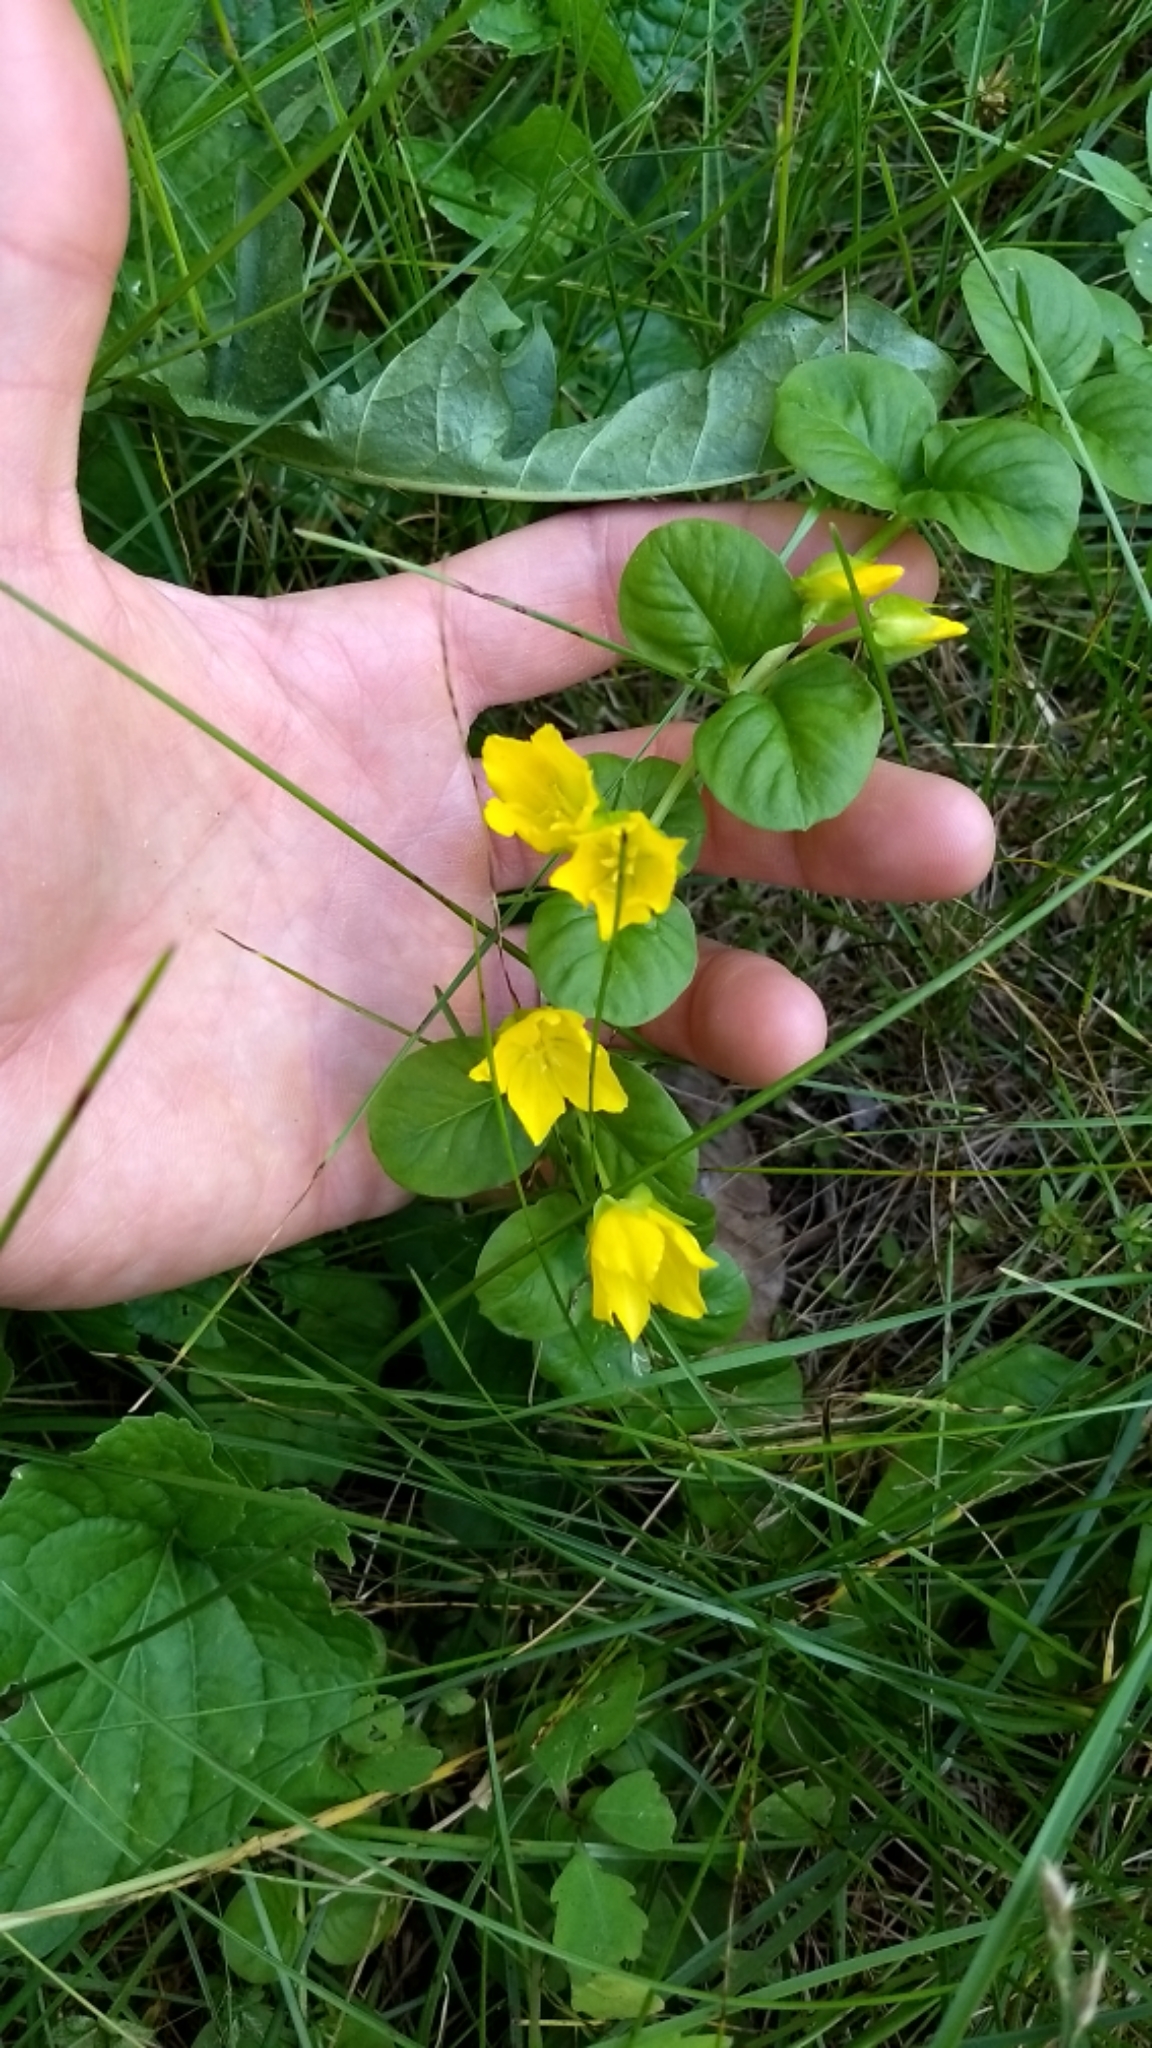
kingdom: Plantae
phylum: Tracheophyta
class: Magnoliopsida
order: Ericales
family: Primulaceae
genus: Lysimachia
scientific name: Lysimachia nummularia
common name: Moneywort
